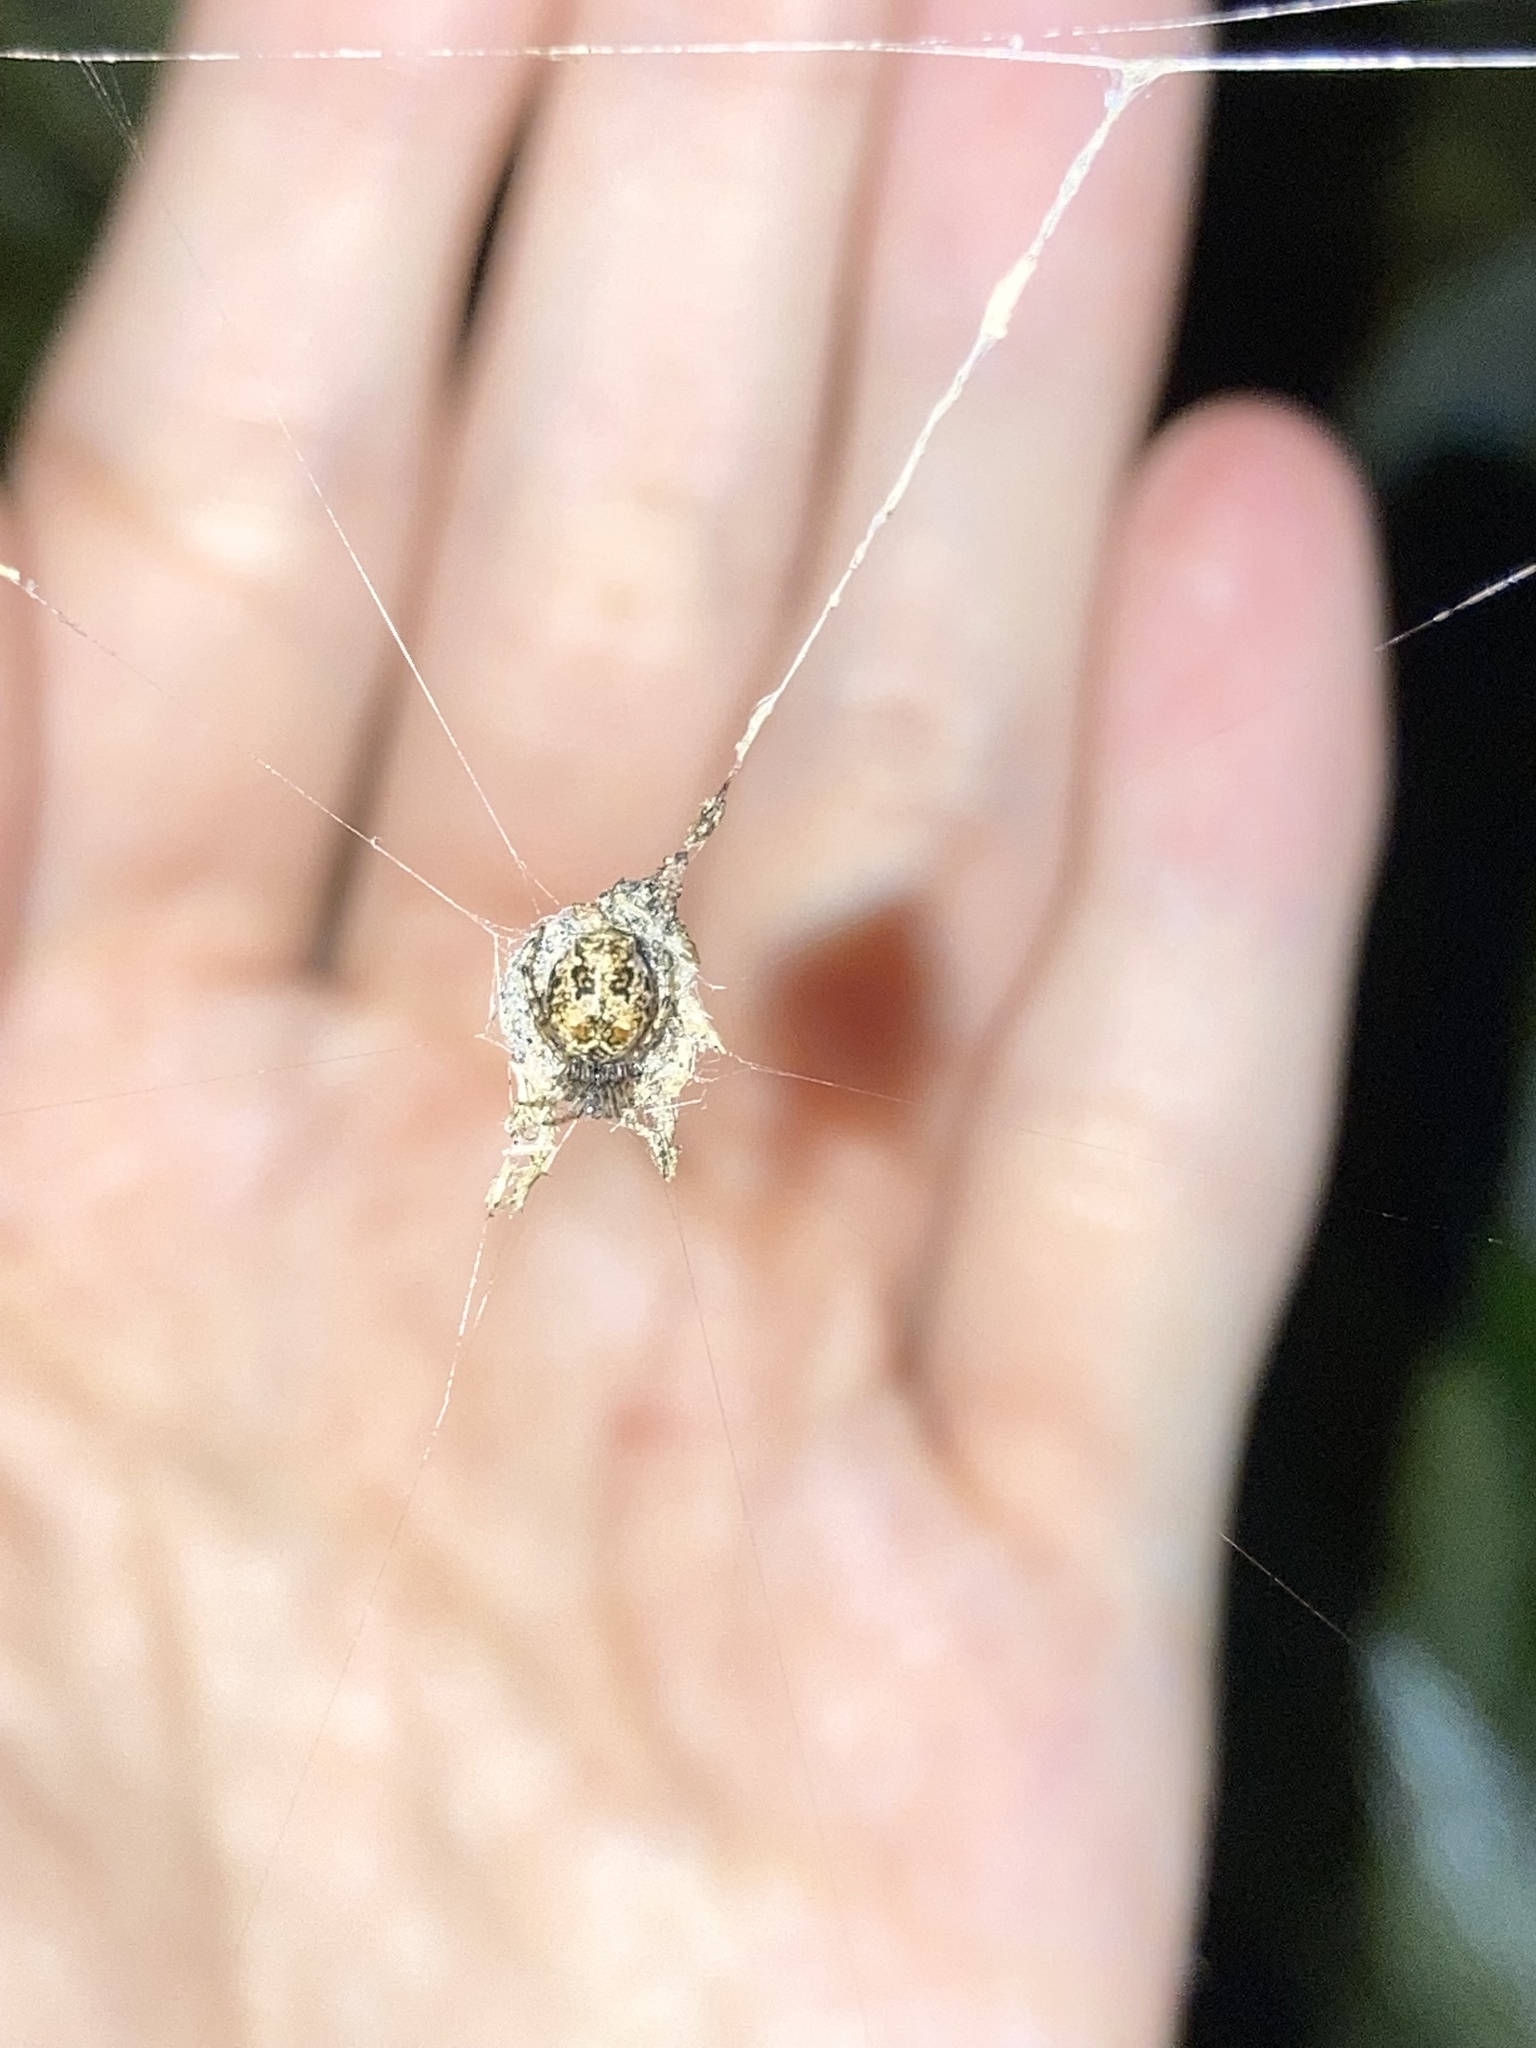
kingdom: Animalia
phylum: Arthropoda
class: Arachnida
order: Araneae
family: Araneidae
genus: Cyclosa
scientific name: Cyclosa walckenaeri
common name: Orb weavers
